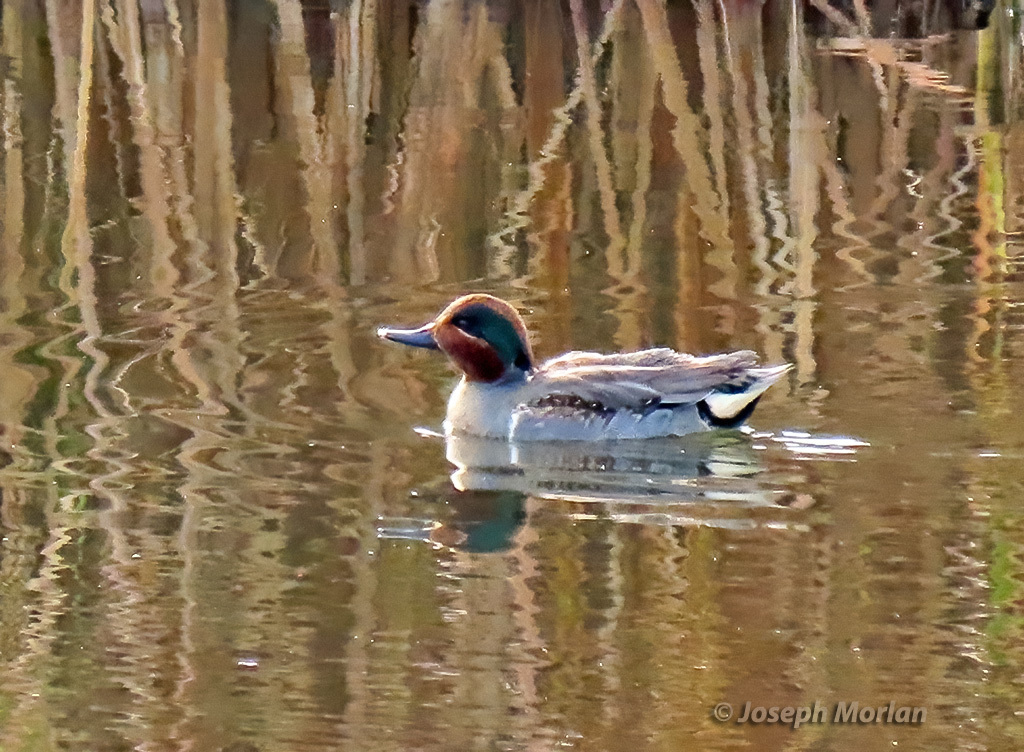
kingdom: Animalia
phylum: Chordata
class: Aves
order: Anseriformes
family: Anatidae
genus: Anas
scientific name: Anas crecca
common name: Eurasian teal
